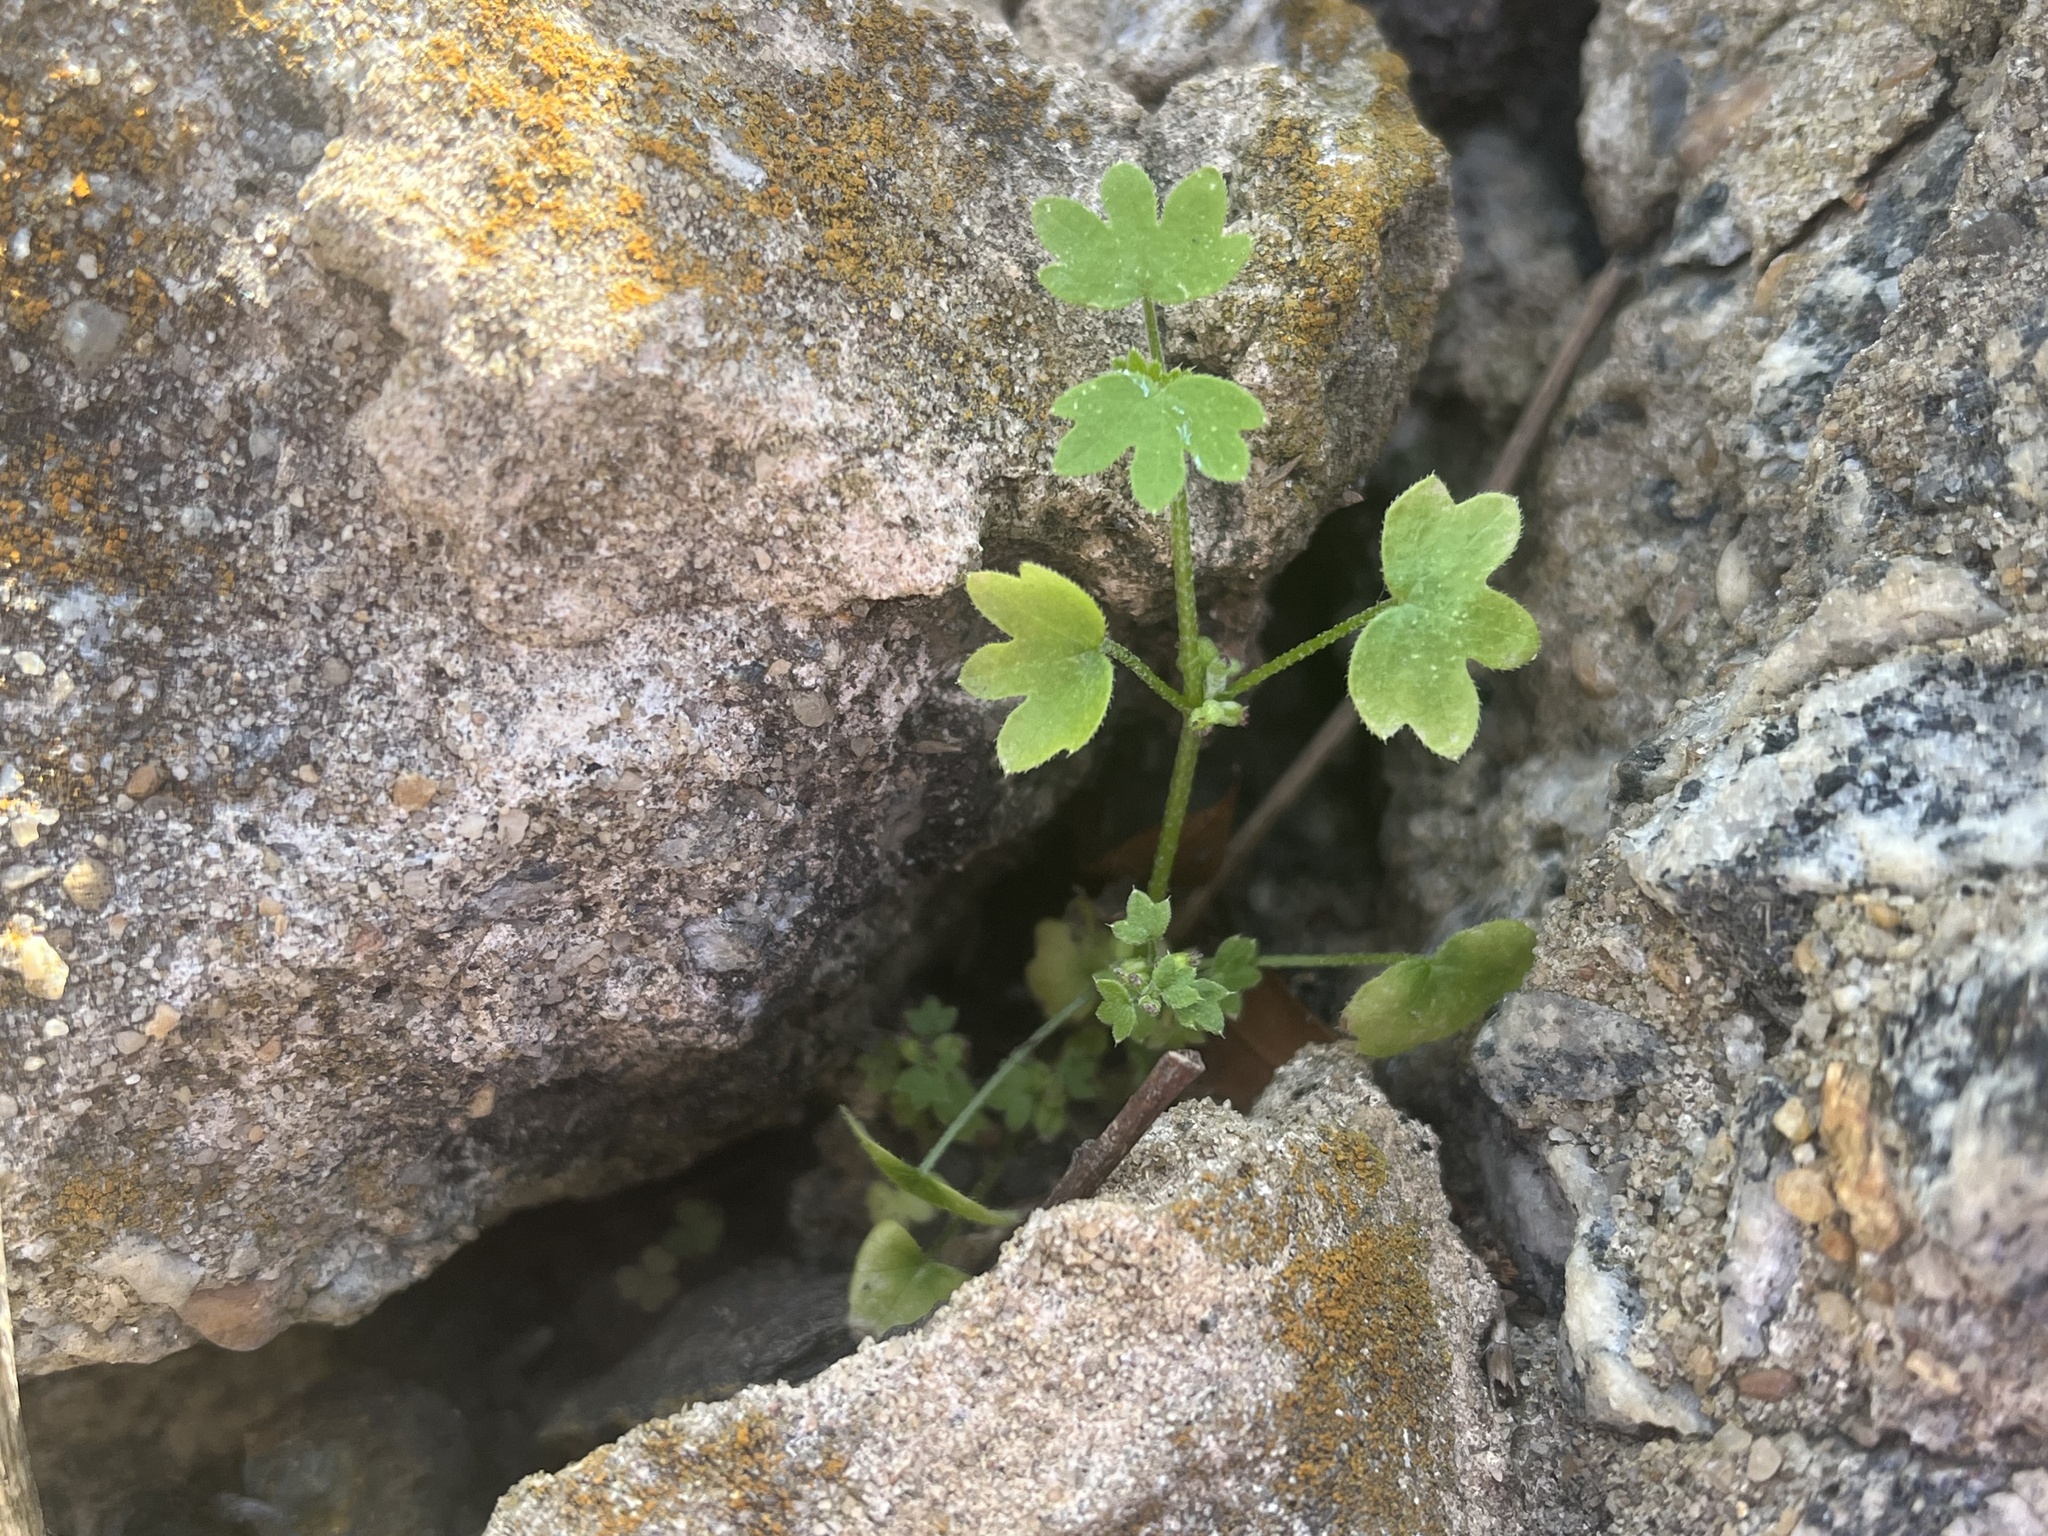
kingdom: Plantae
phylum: Tracheophyta
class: Magnoliopsida
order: Apiales
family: Apiaceae
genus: Bowlesia
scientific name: Bowlesia incana
